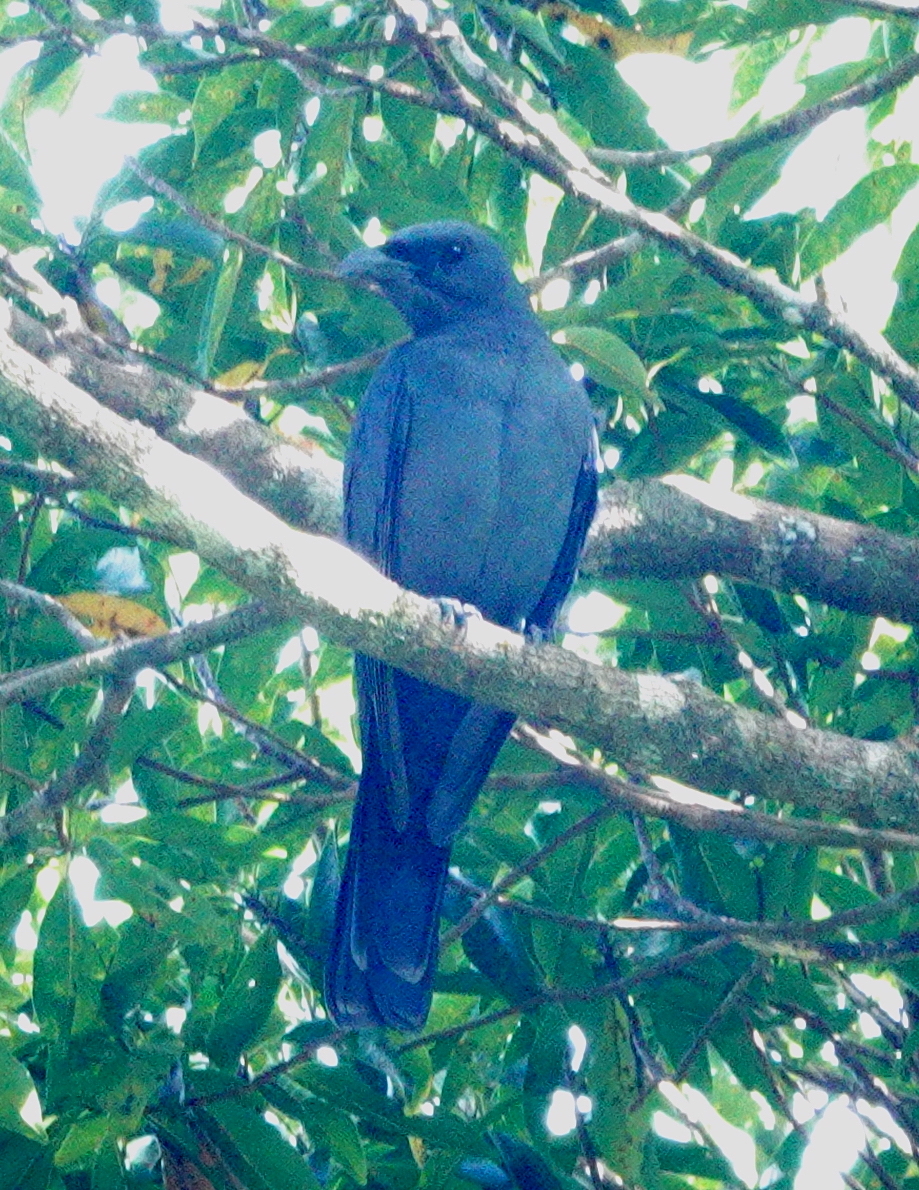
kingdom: Animalia
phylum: Chordata
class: Aves
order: Passeriformes
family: Campephagidae
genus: Coracina
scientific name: Coracina personata
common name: Wallacean cuckooshrike
